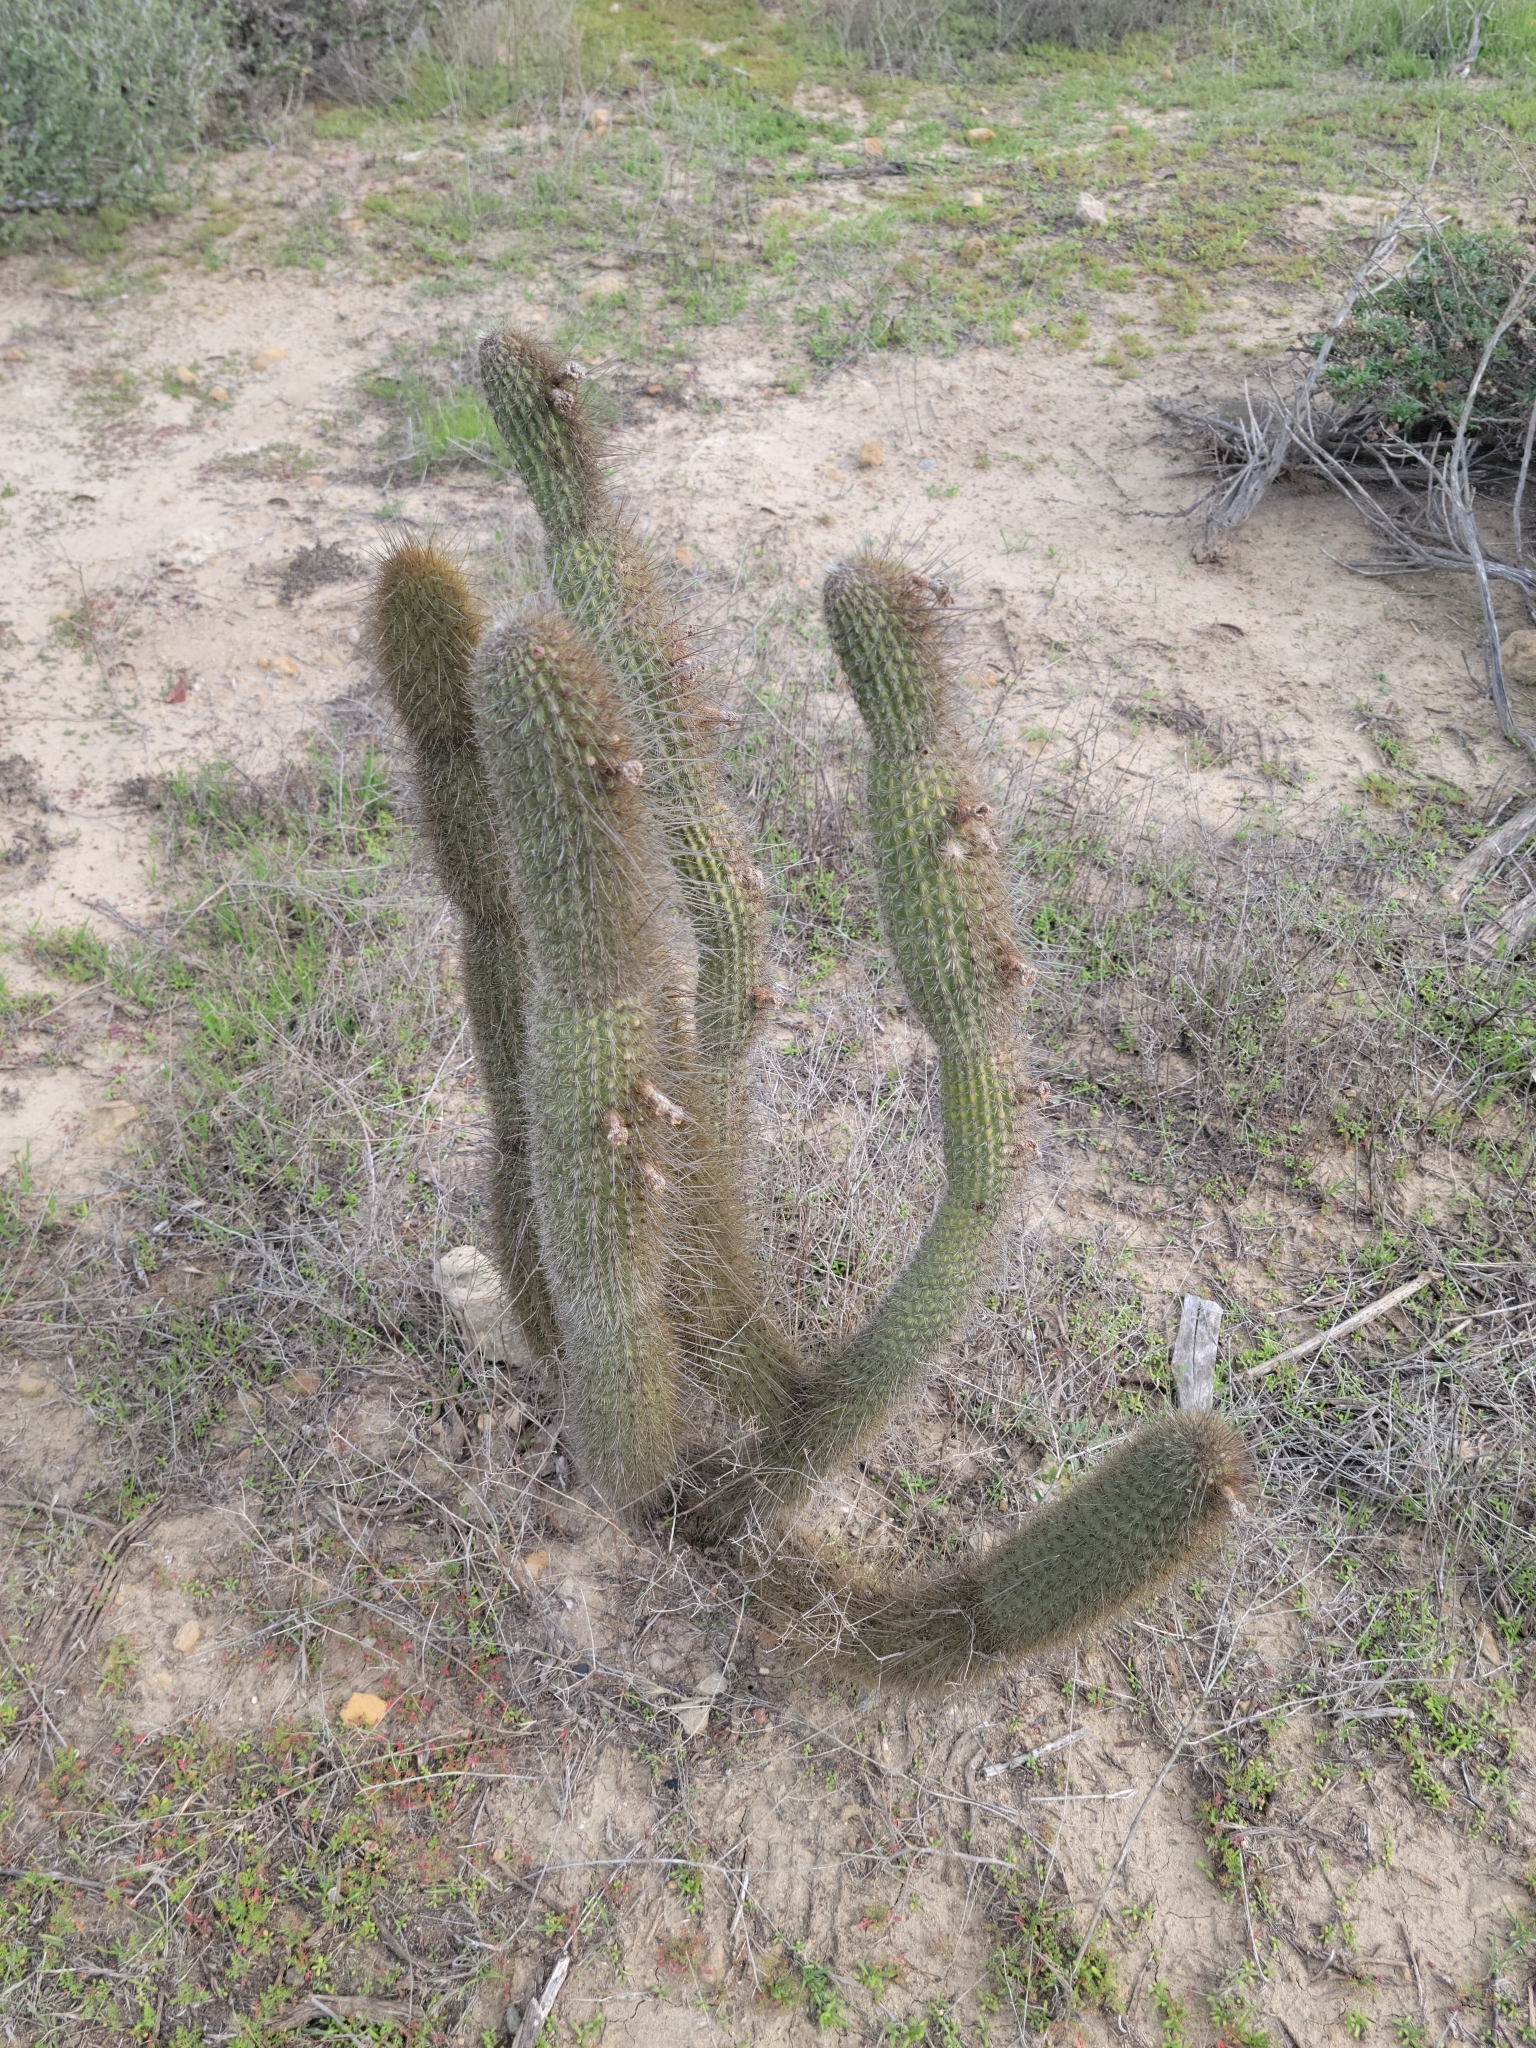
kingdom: Plantae
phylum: Tracheophyta
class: Magnoliopsida
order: Caryophyllales
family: Cactaceae
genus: Bergerocactus
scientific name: Bergerocactus emoryi
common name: Golden snakecactus
